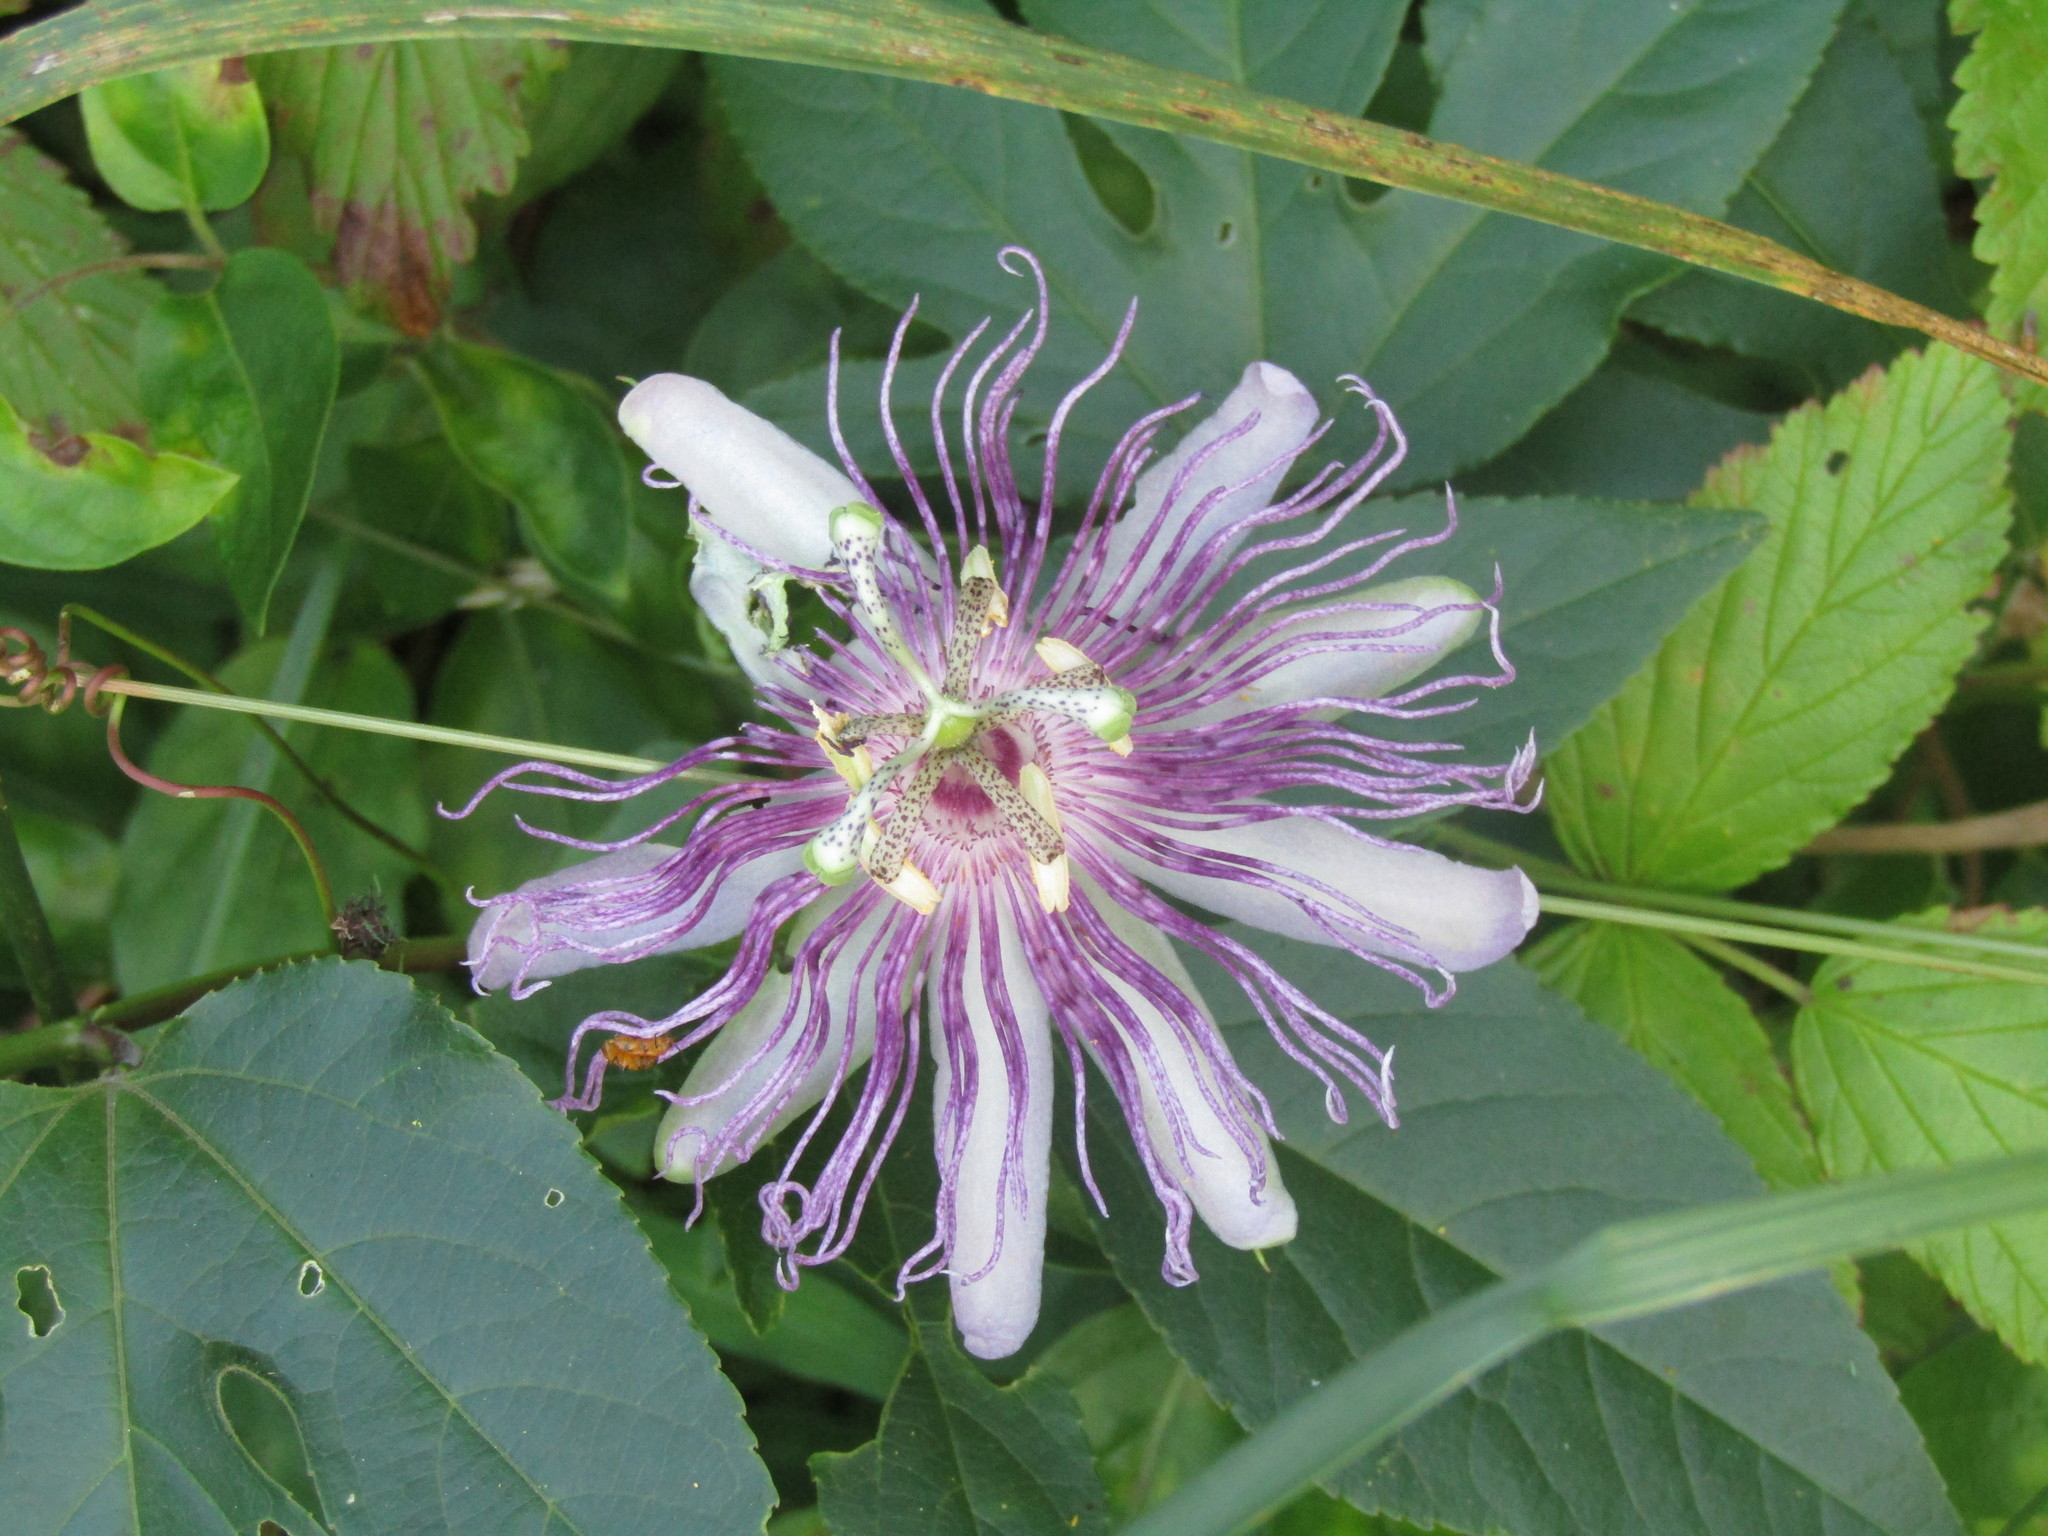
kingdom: Plantae
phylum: Tracheophyta
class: Magnoliopsida
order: Malpighiales
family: Passifloraceae
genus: Passiflora
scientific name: Passiflora incarnata
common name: Apricot-vine
